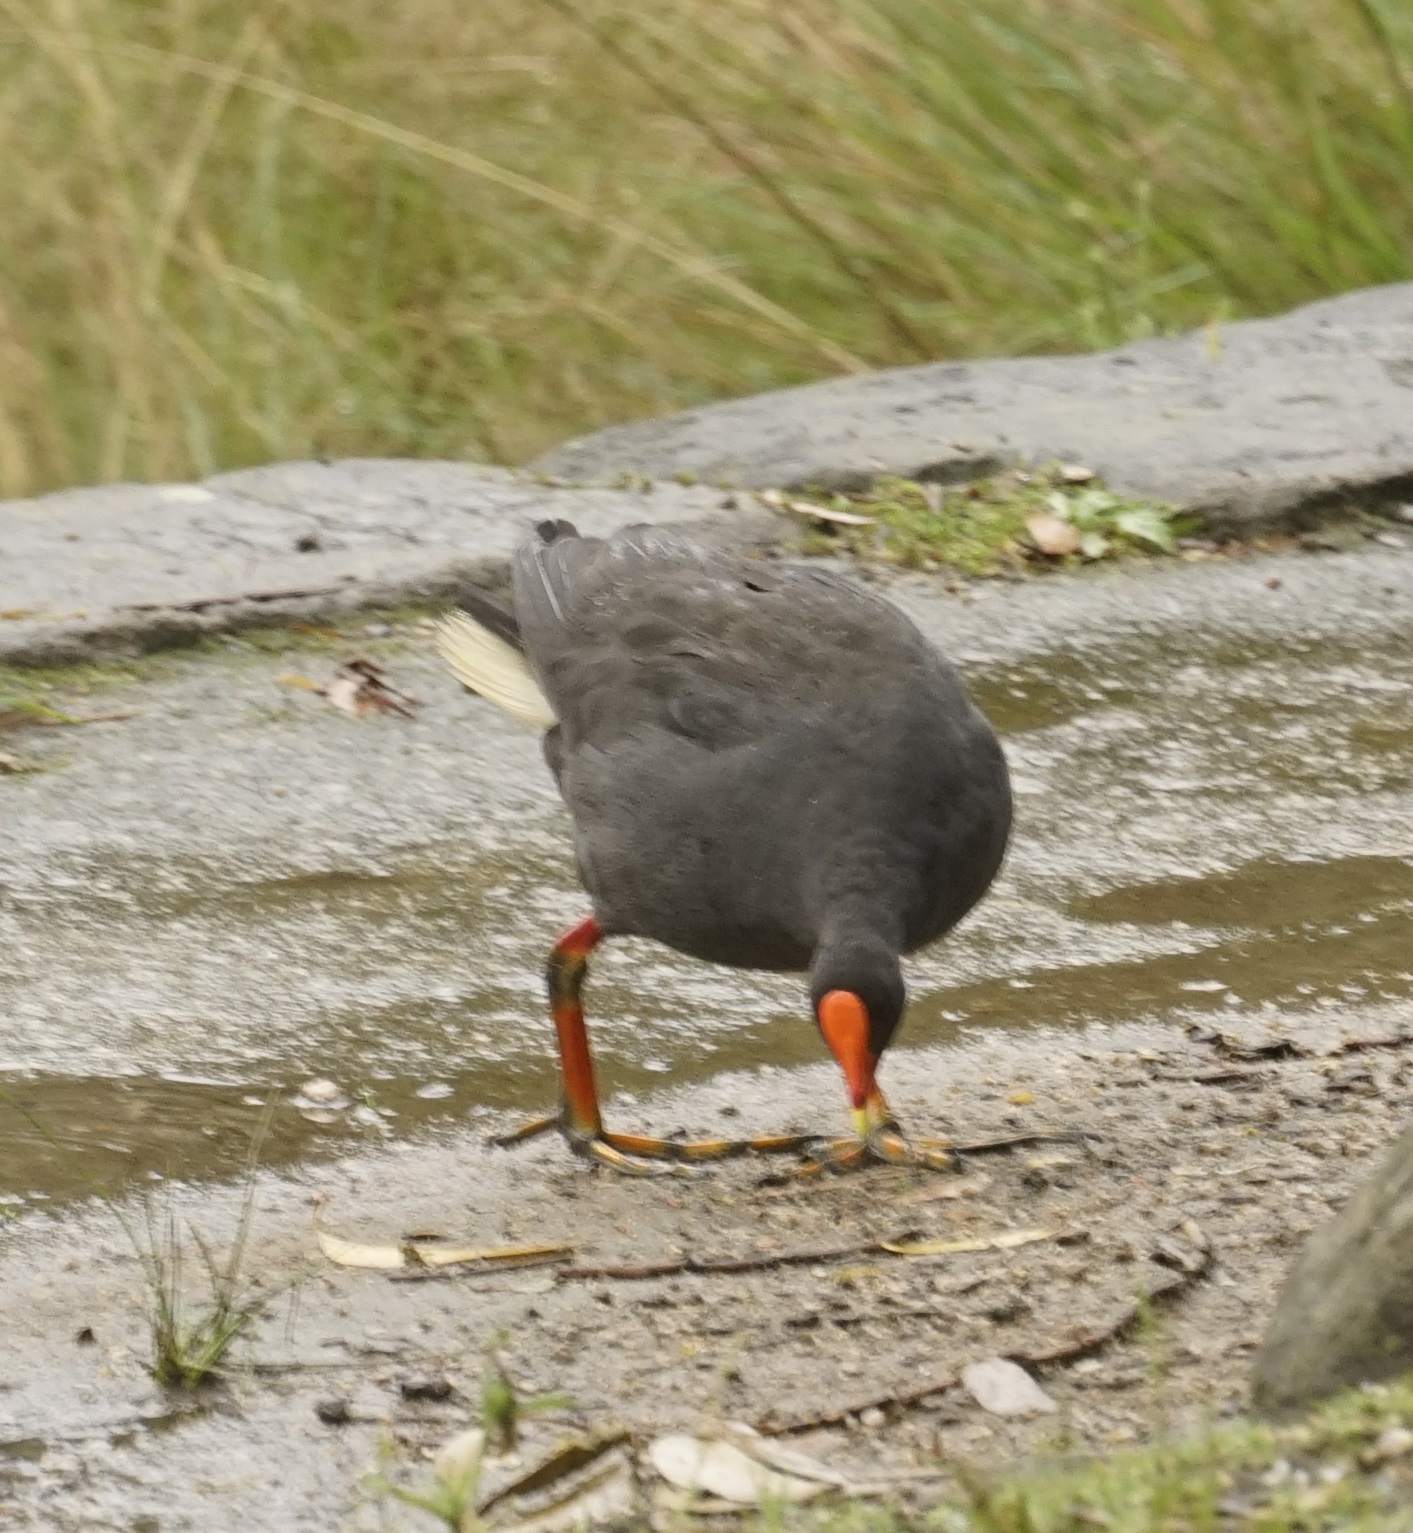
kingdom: Animalia
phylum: Chordata
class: Aves
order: Gruiformes
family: Rallidae
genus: Gallinula
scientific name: Gallinula tenebrosa
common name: Dusky moorhen
